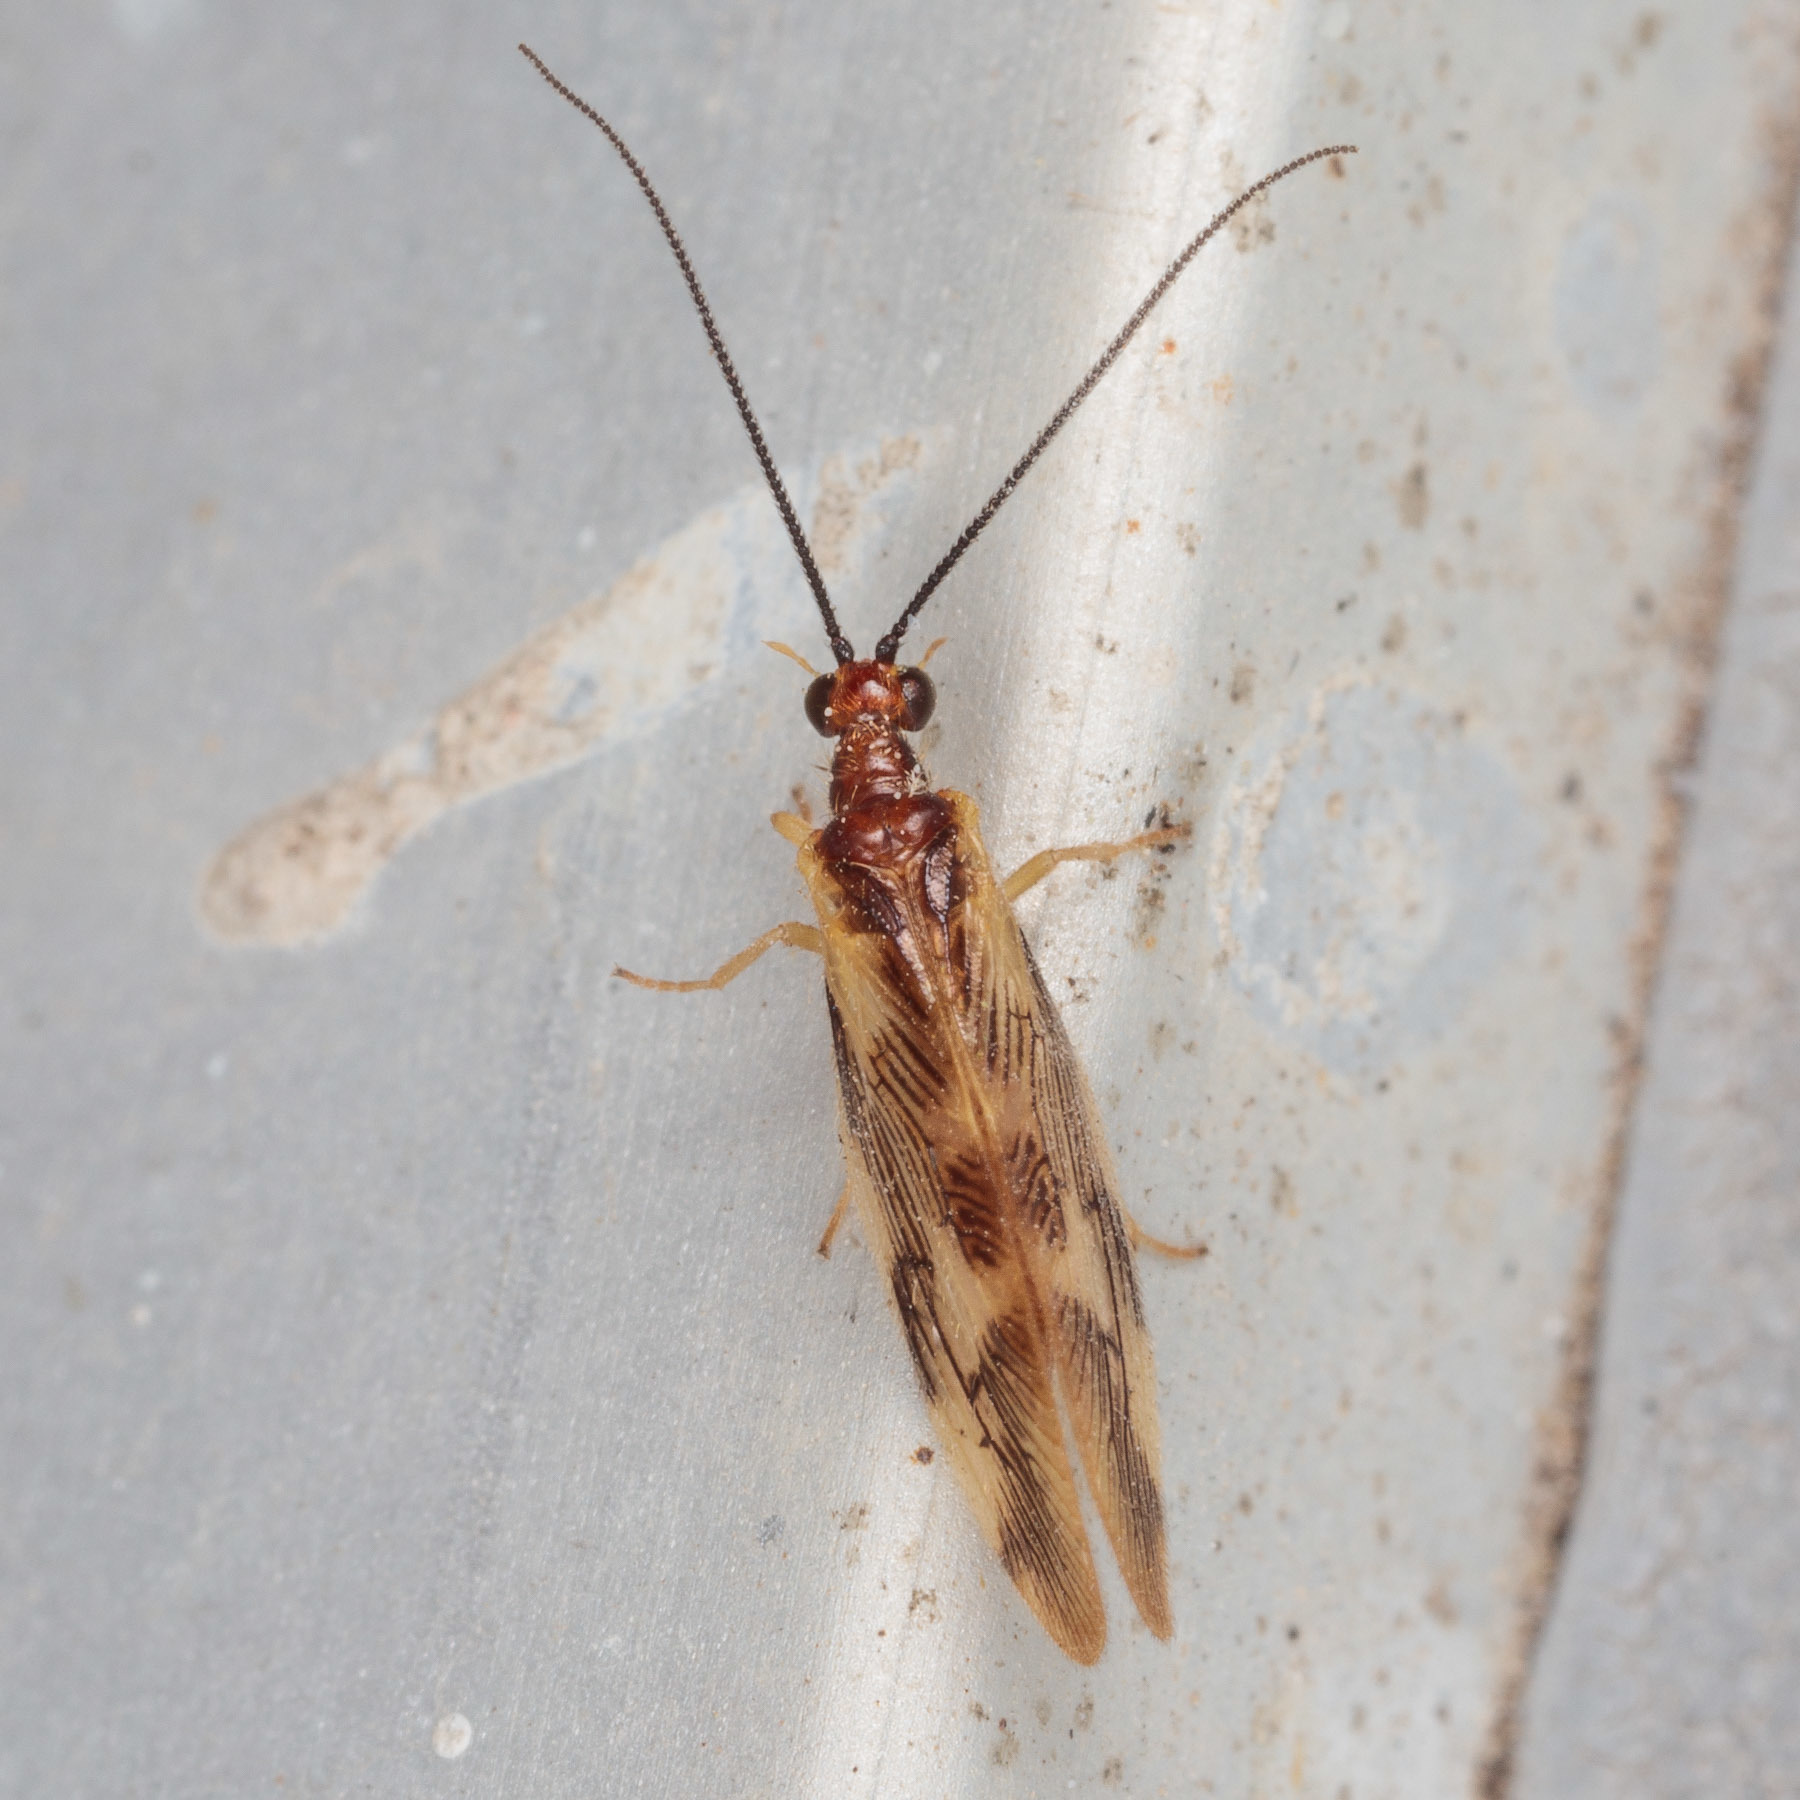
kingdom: Animalia
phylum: Arthropoda
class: Insecta
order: Neuroptera
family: Sisyridae
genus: Climacia
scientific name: Climacia areolaris
